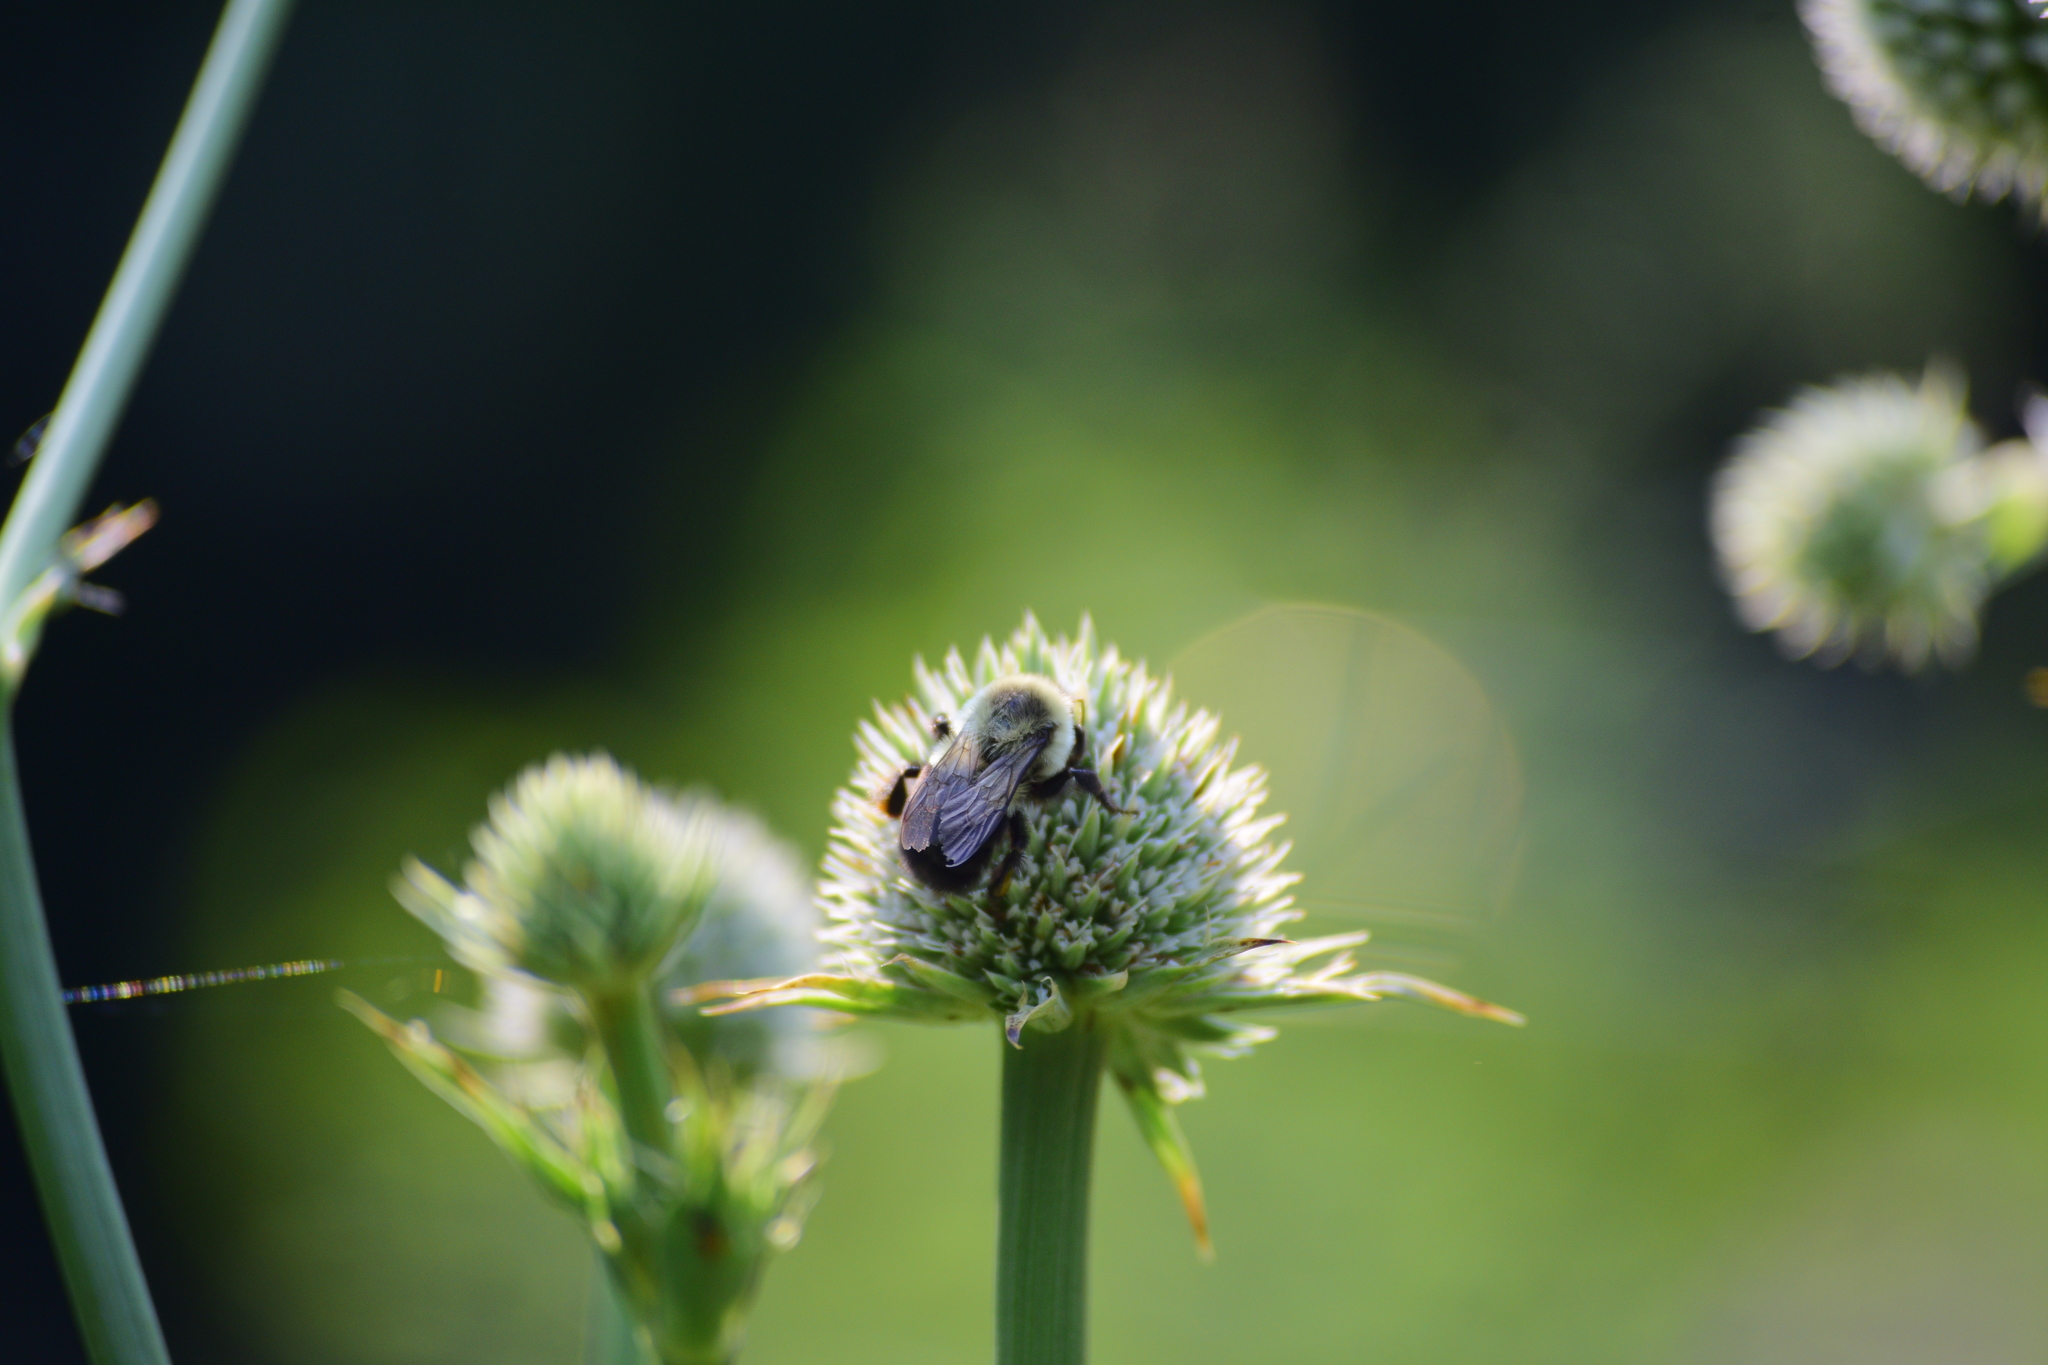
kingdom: Animalia
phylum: Arthropoda
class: Insecta
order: Hymenoptera
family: Apidae
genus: Bombus
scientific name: Bombus impatiens
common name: Common eastern bumble bee
